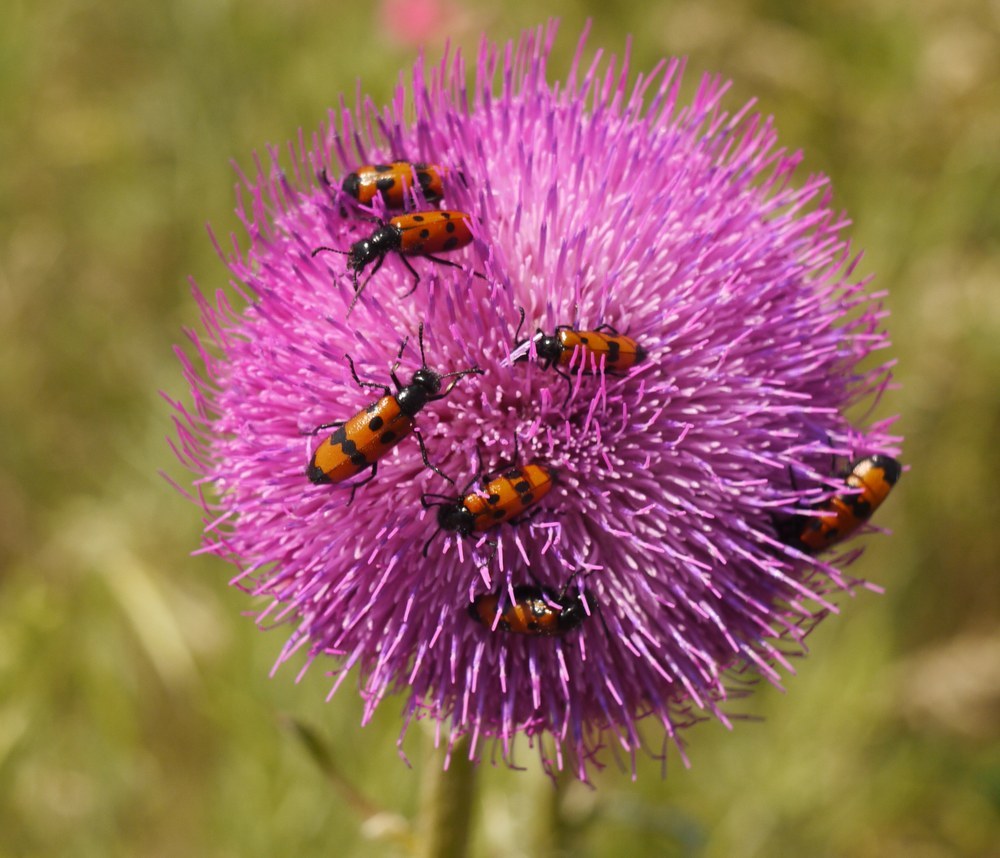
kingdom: Animalia
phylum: Arthropoda
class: Insecta
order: Coleoptera
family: Meloidae
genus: Mylabris
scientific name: Mylabris quadripunctata
